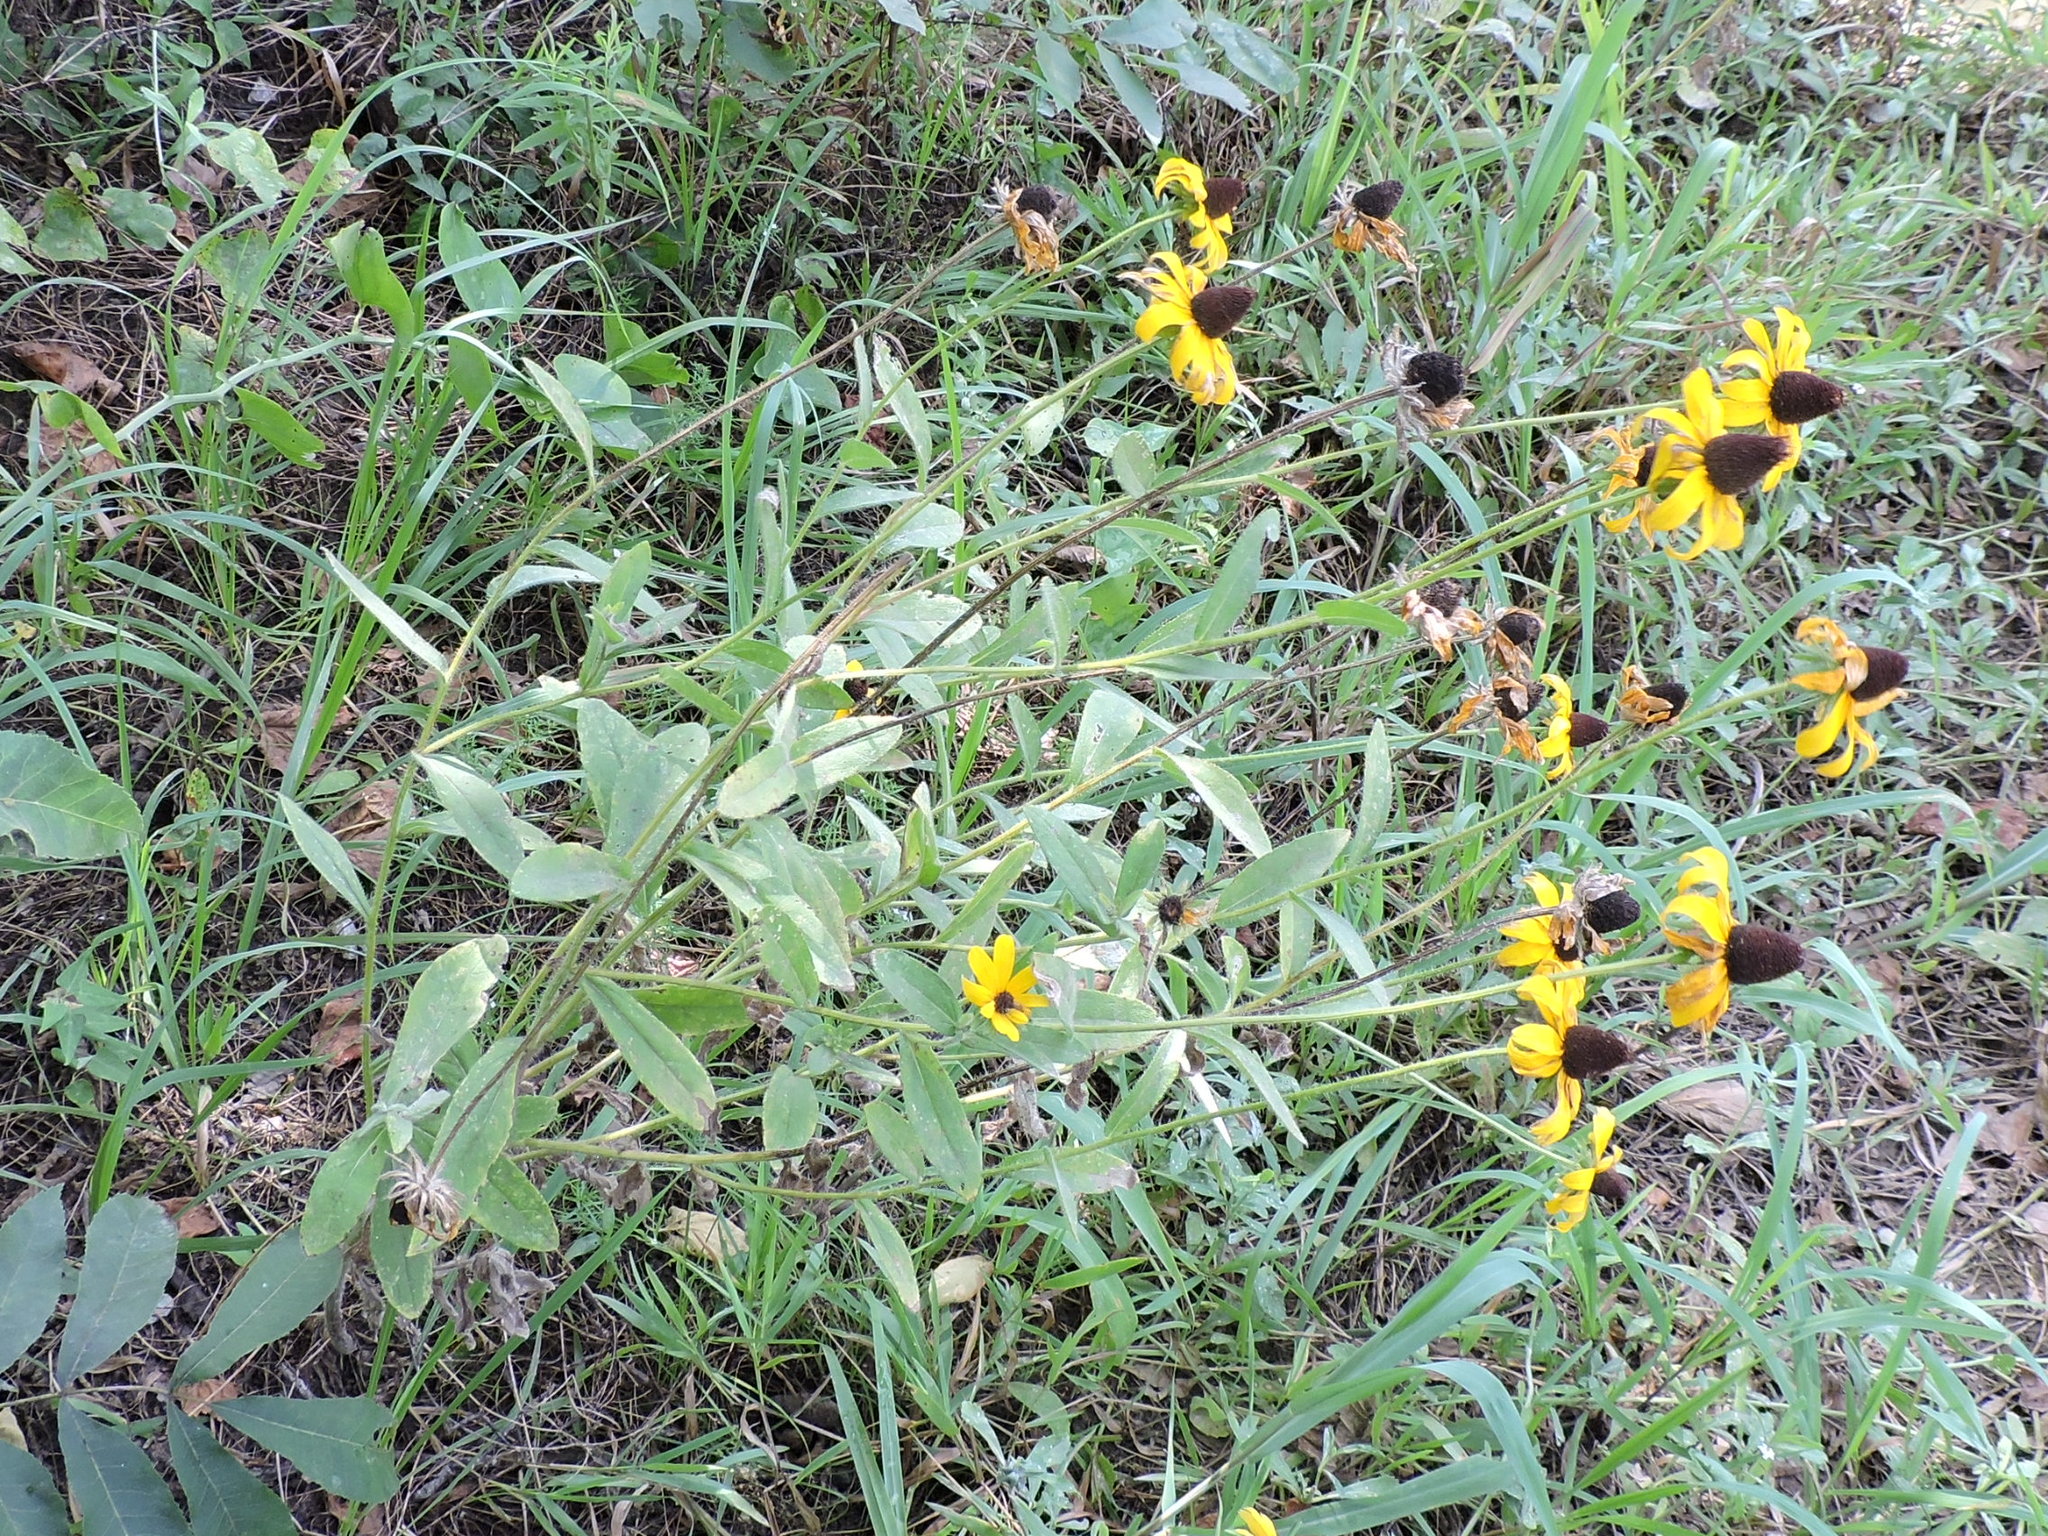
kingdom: Plantae
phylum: Tracheophyta
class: Magnoliopsida
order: Asterales
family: Asteraceae
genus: Rudbeckia
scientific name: Rudbeckia hirta
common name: Black-eyed-susan
